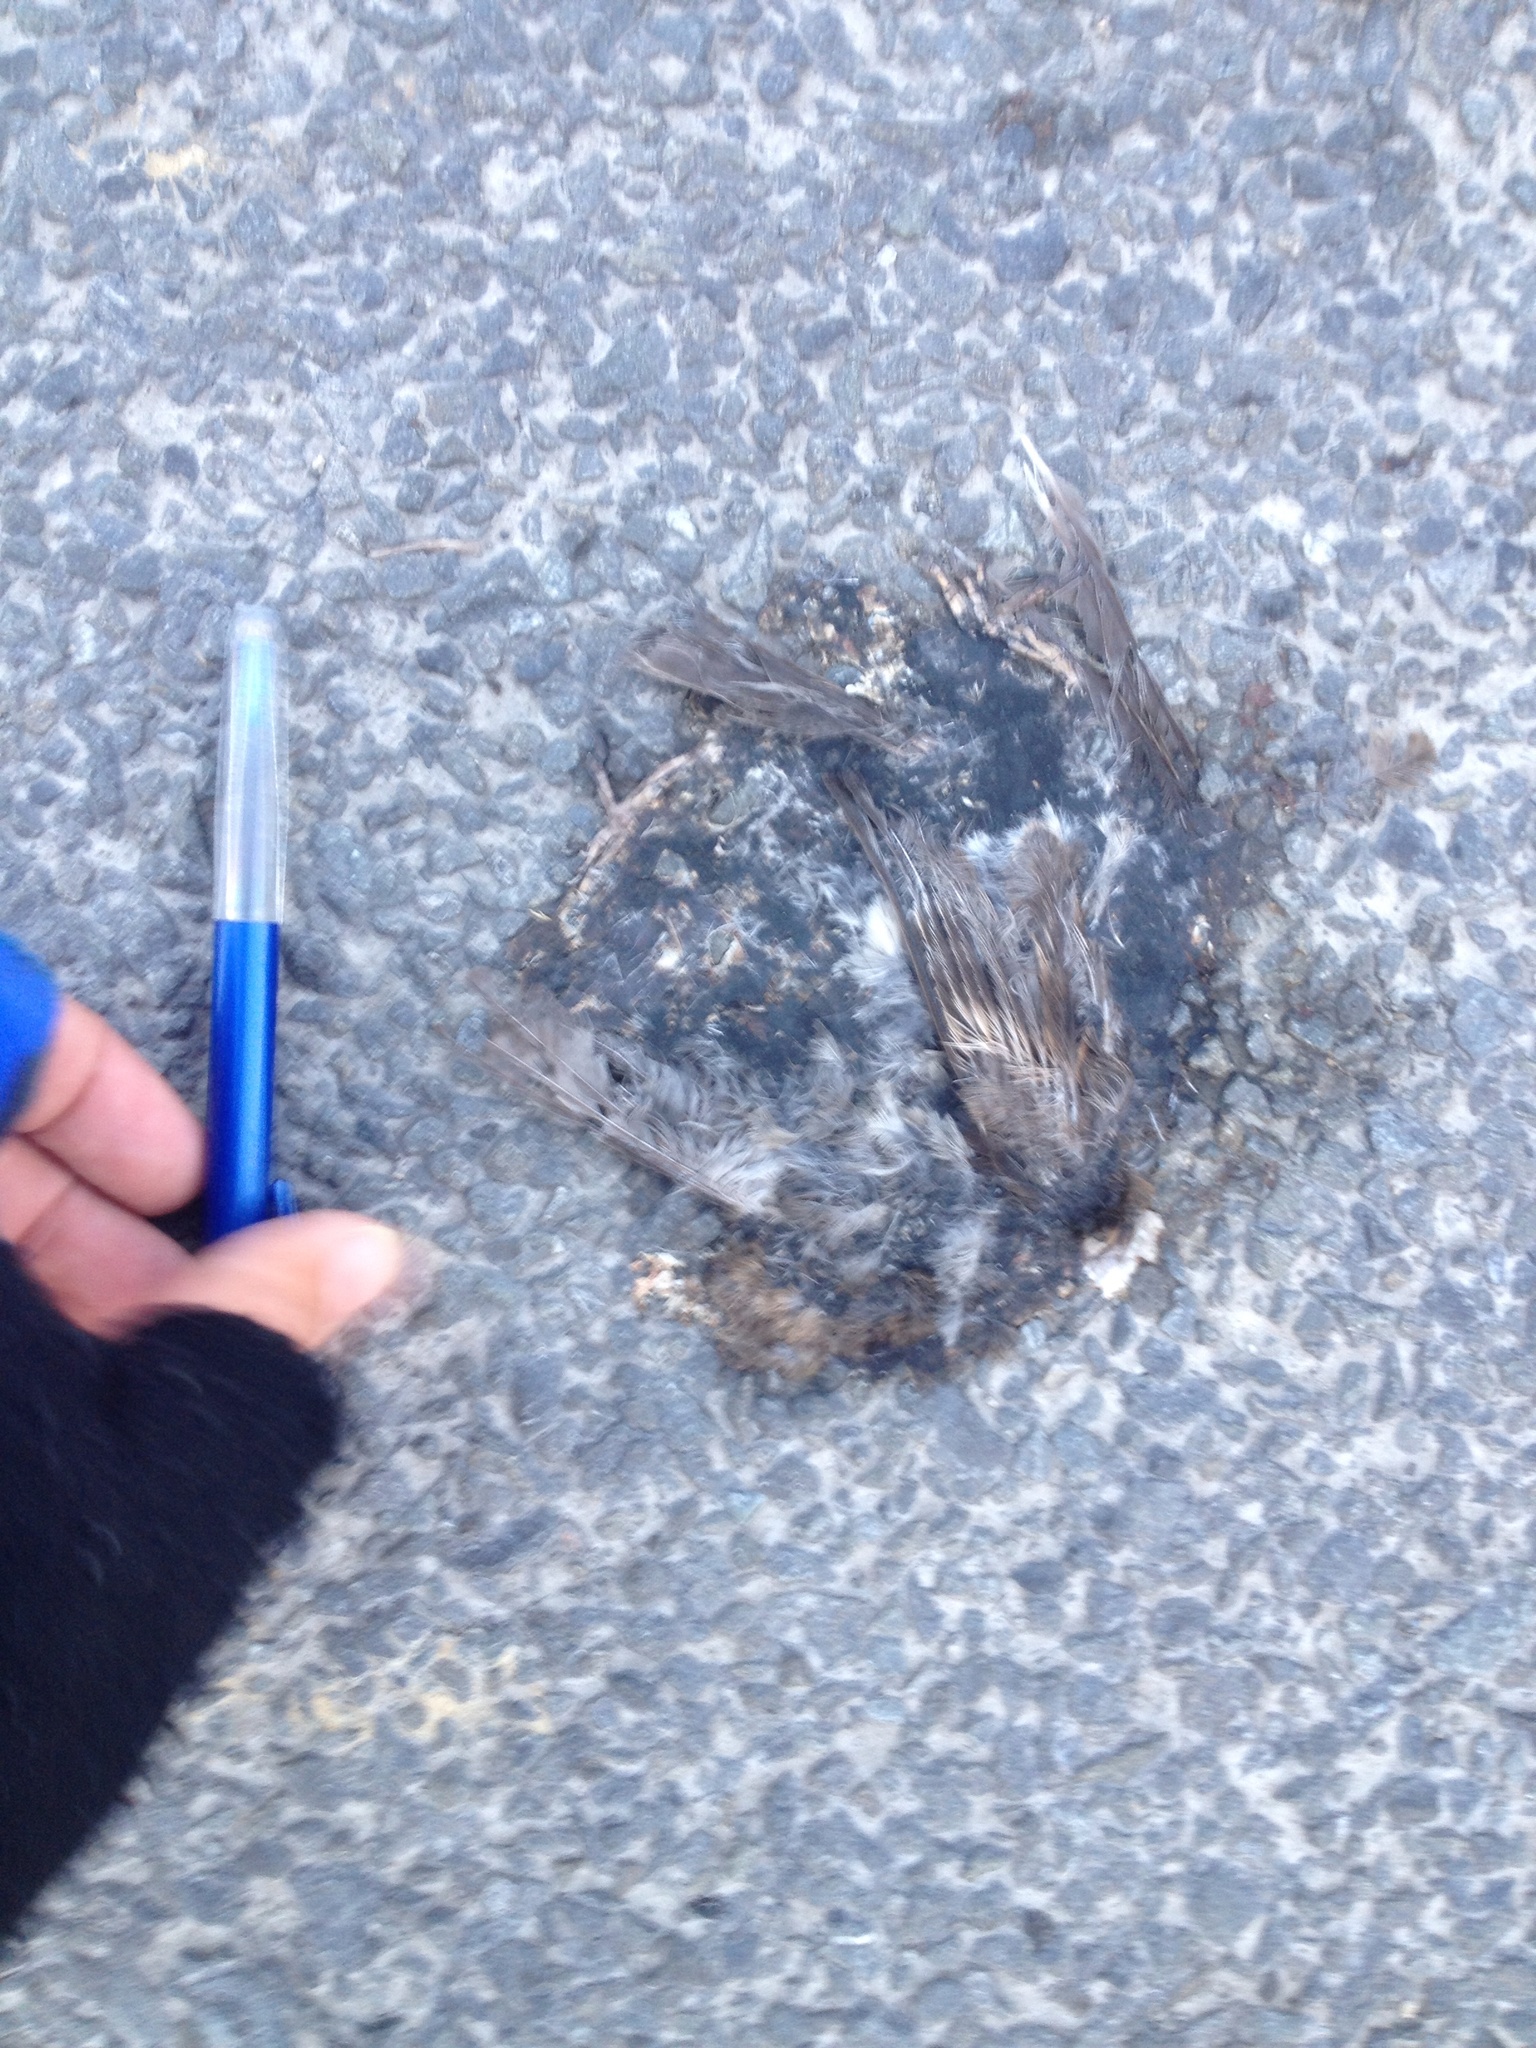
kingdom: Animalia
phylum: Chordata
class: Aves
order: Passeriformes
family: Passeridae
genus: Passer
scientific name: Passer domesticus
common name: House sparrow
